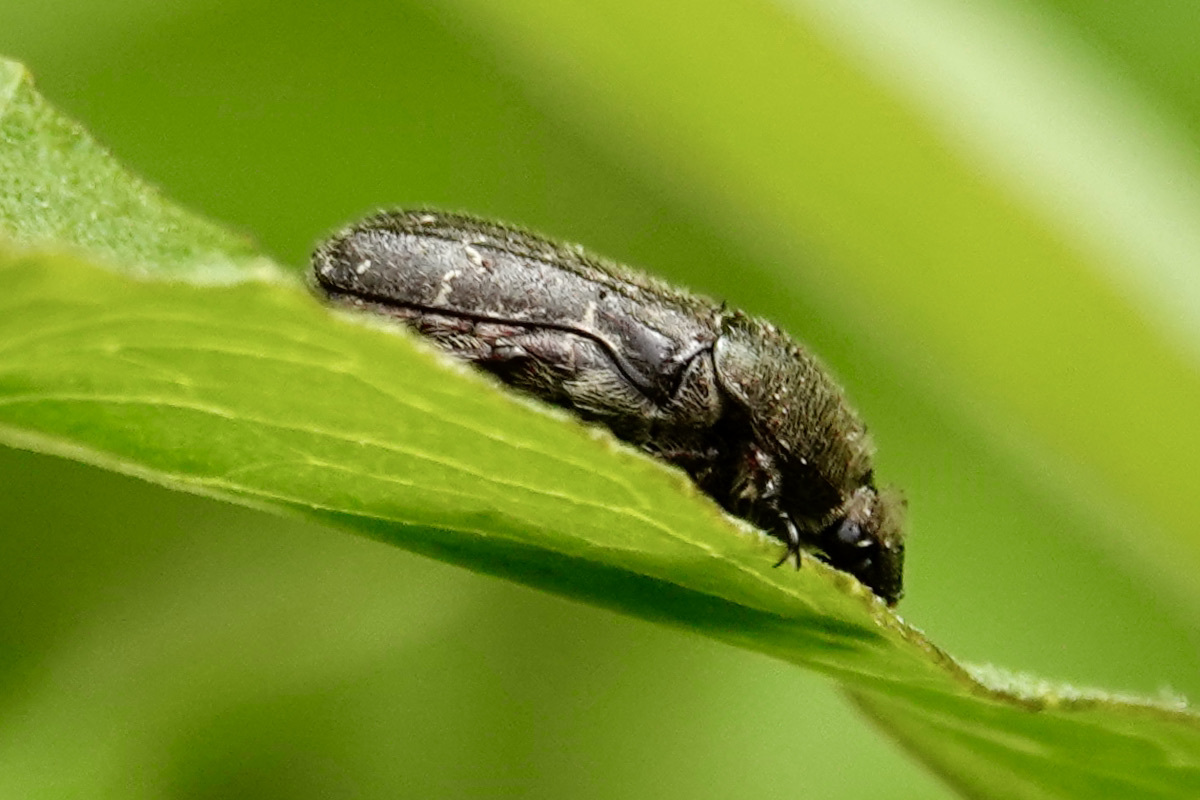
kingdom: Animalia
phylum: Arthropoda
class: Insecta
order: Coleoptera
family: Scarabaeidae
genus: Euphoria
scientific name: Euphoria sepulcralis
